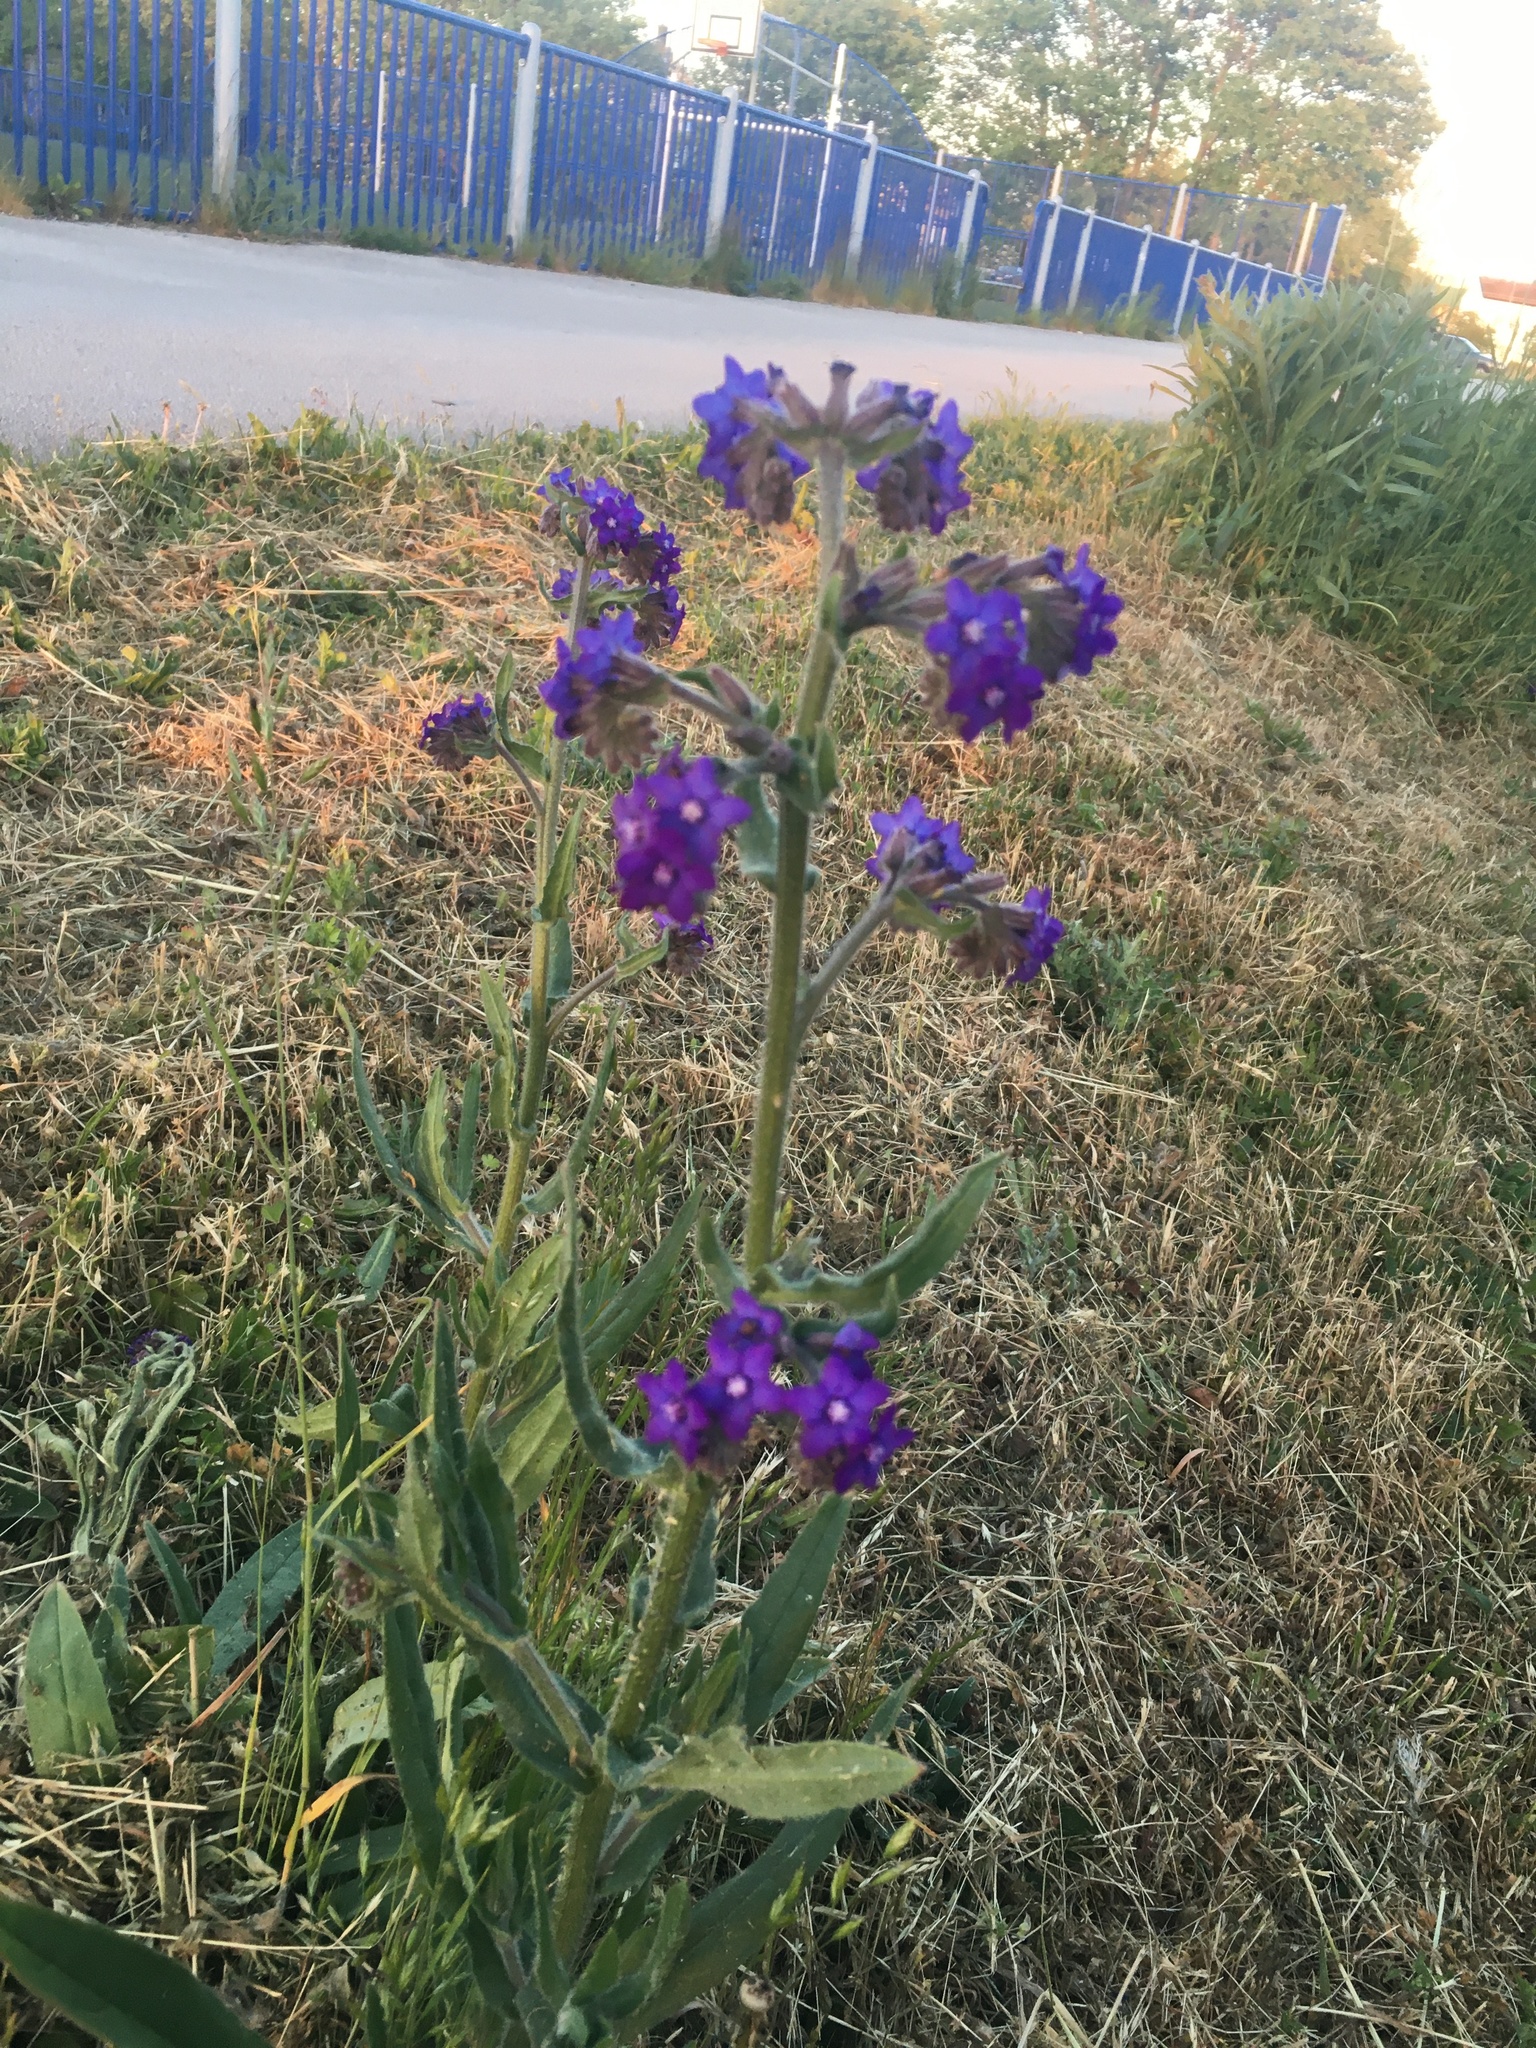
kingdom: Plantae
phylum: Tracheophyta
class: Magnoliopsida
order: Boraginales
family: Boraginaceae
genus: Anchusa
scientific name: Anchusa officinalis
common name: Alkanet
